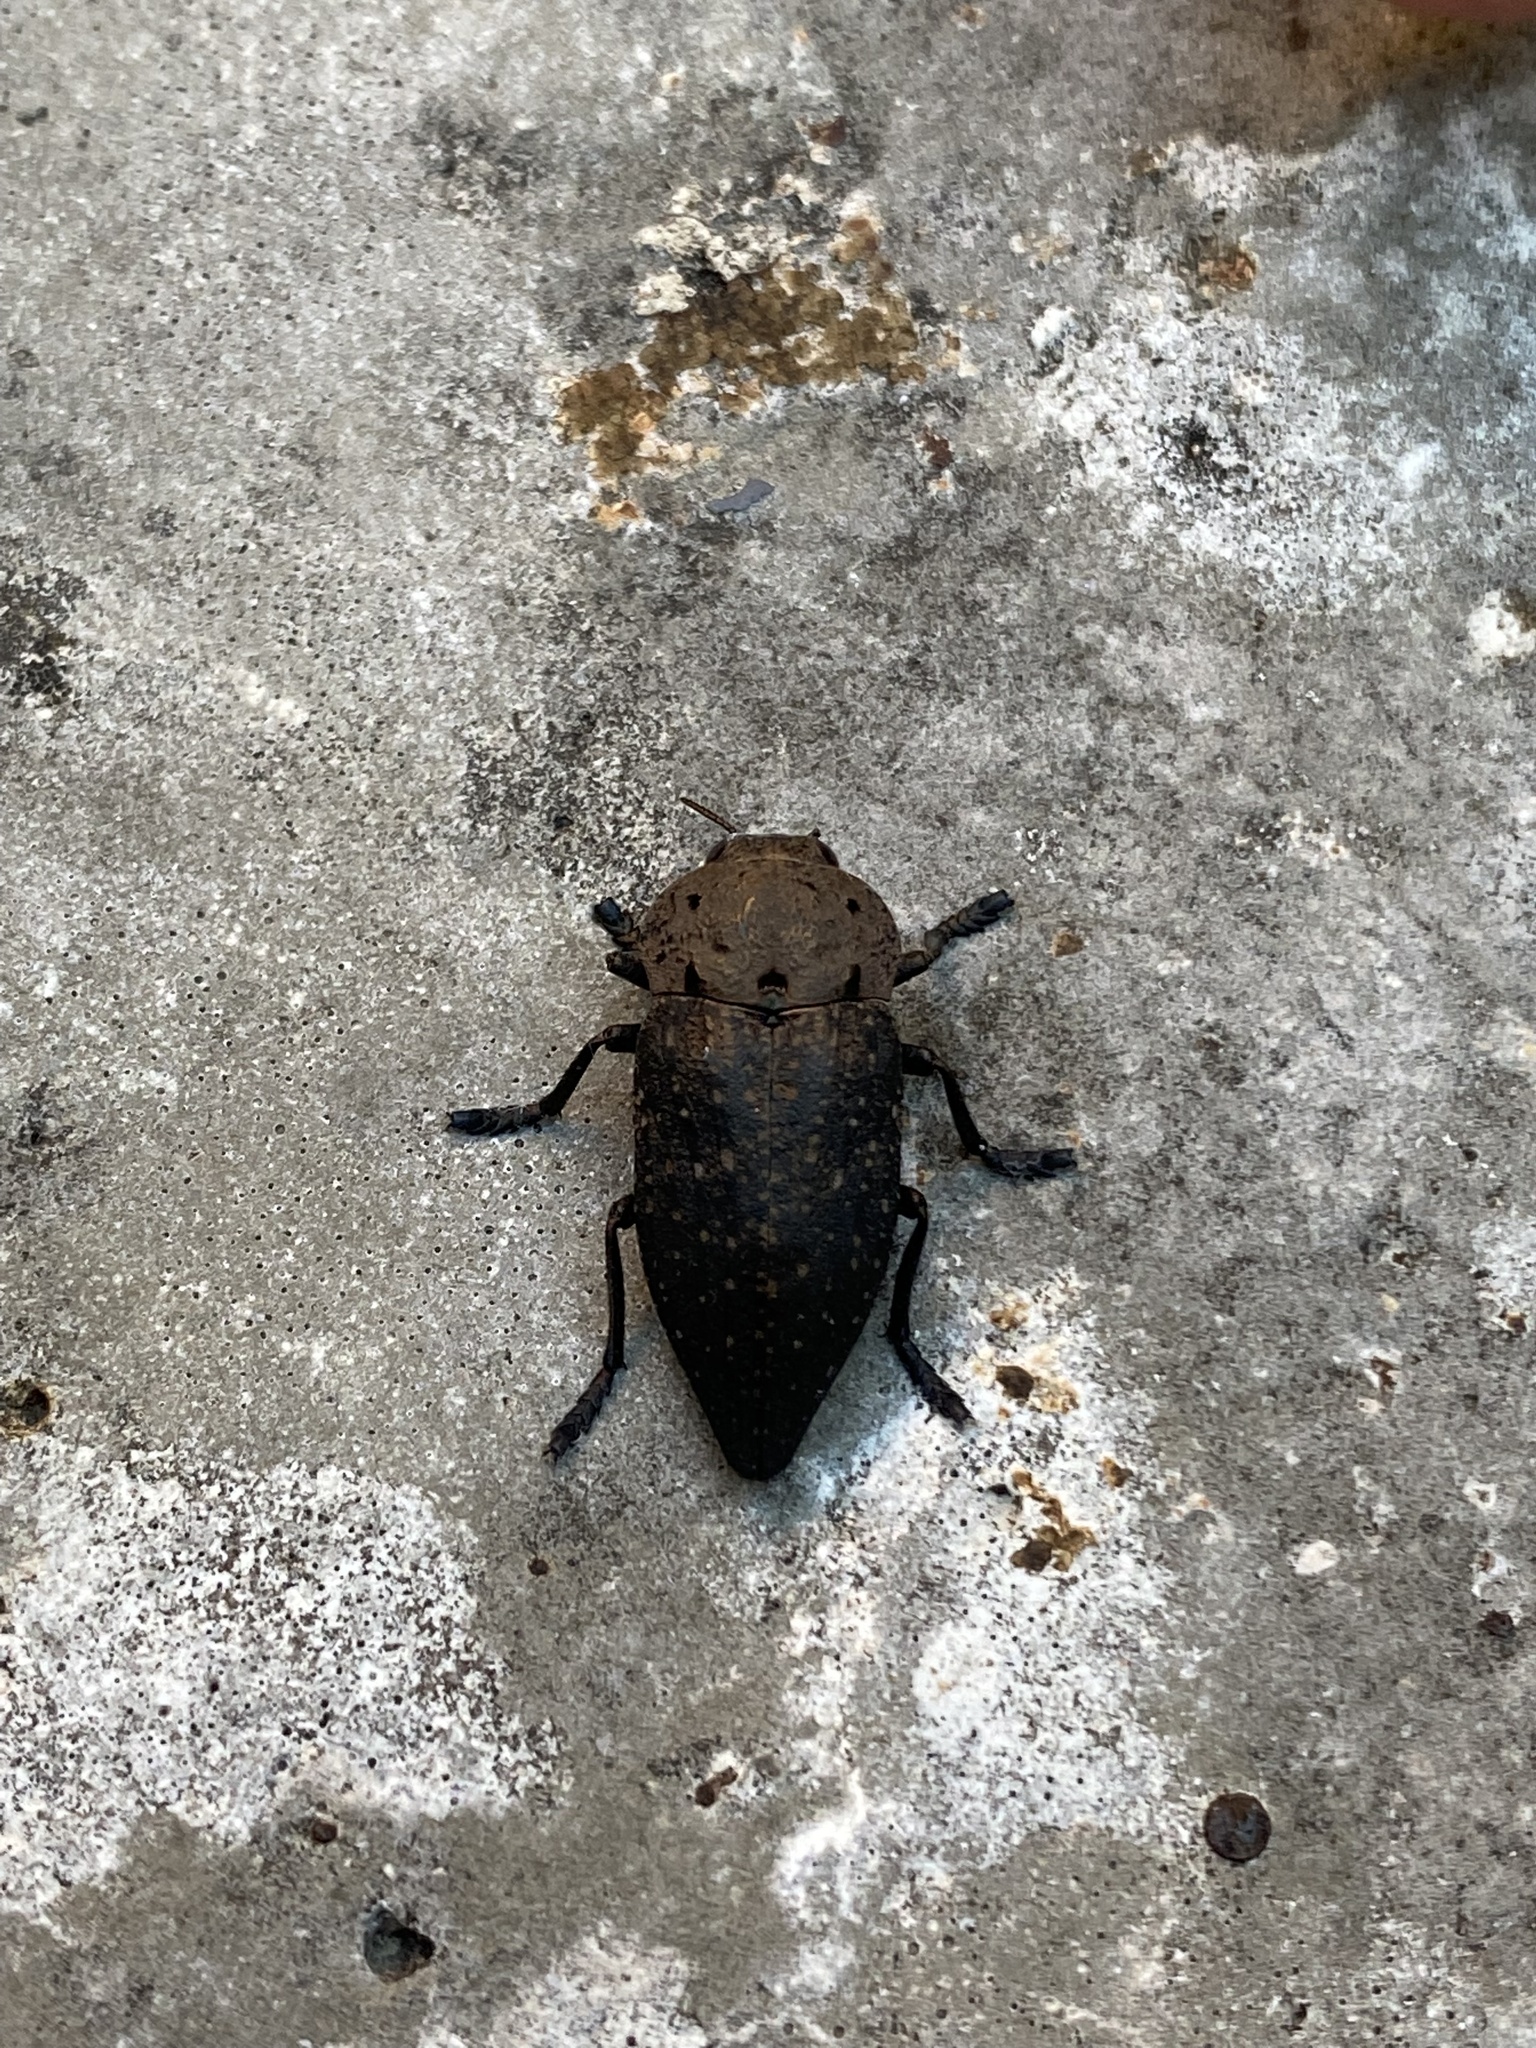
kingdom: Animalia
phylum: Arthropoda
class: Insecta
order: Coleoptera
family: Buprestidae
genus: Capnodis
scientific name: Capnodis tenebricosa
